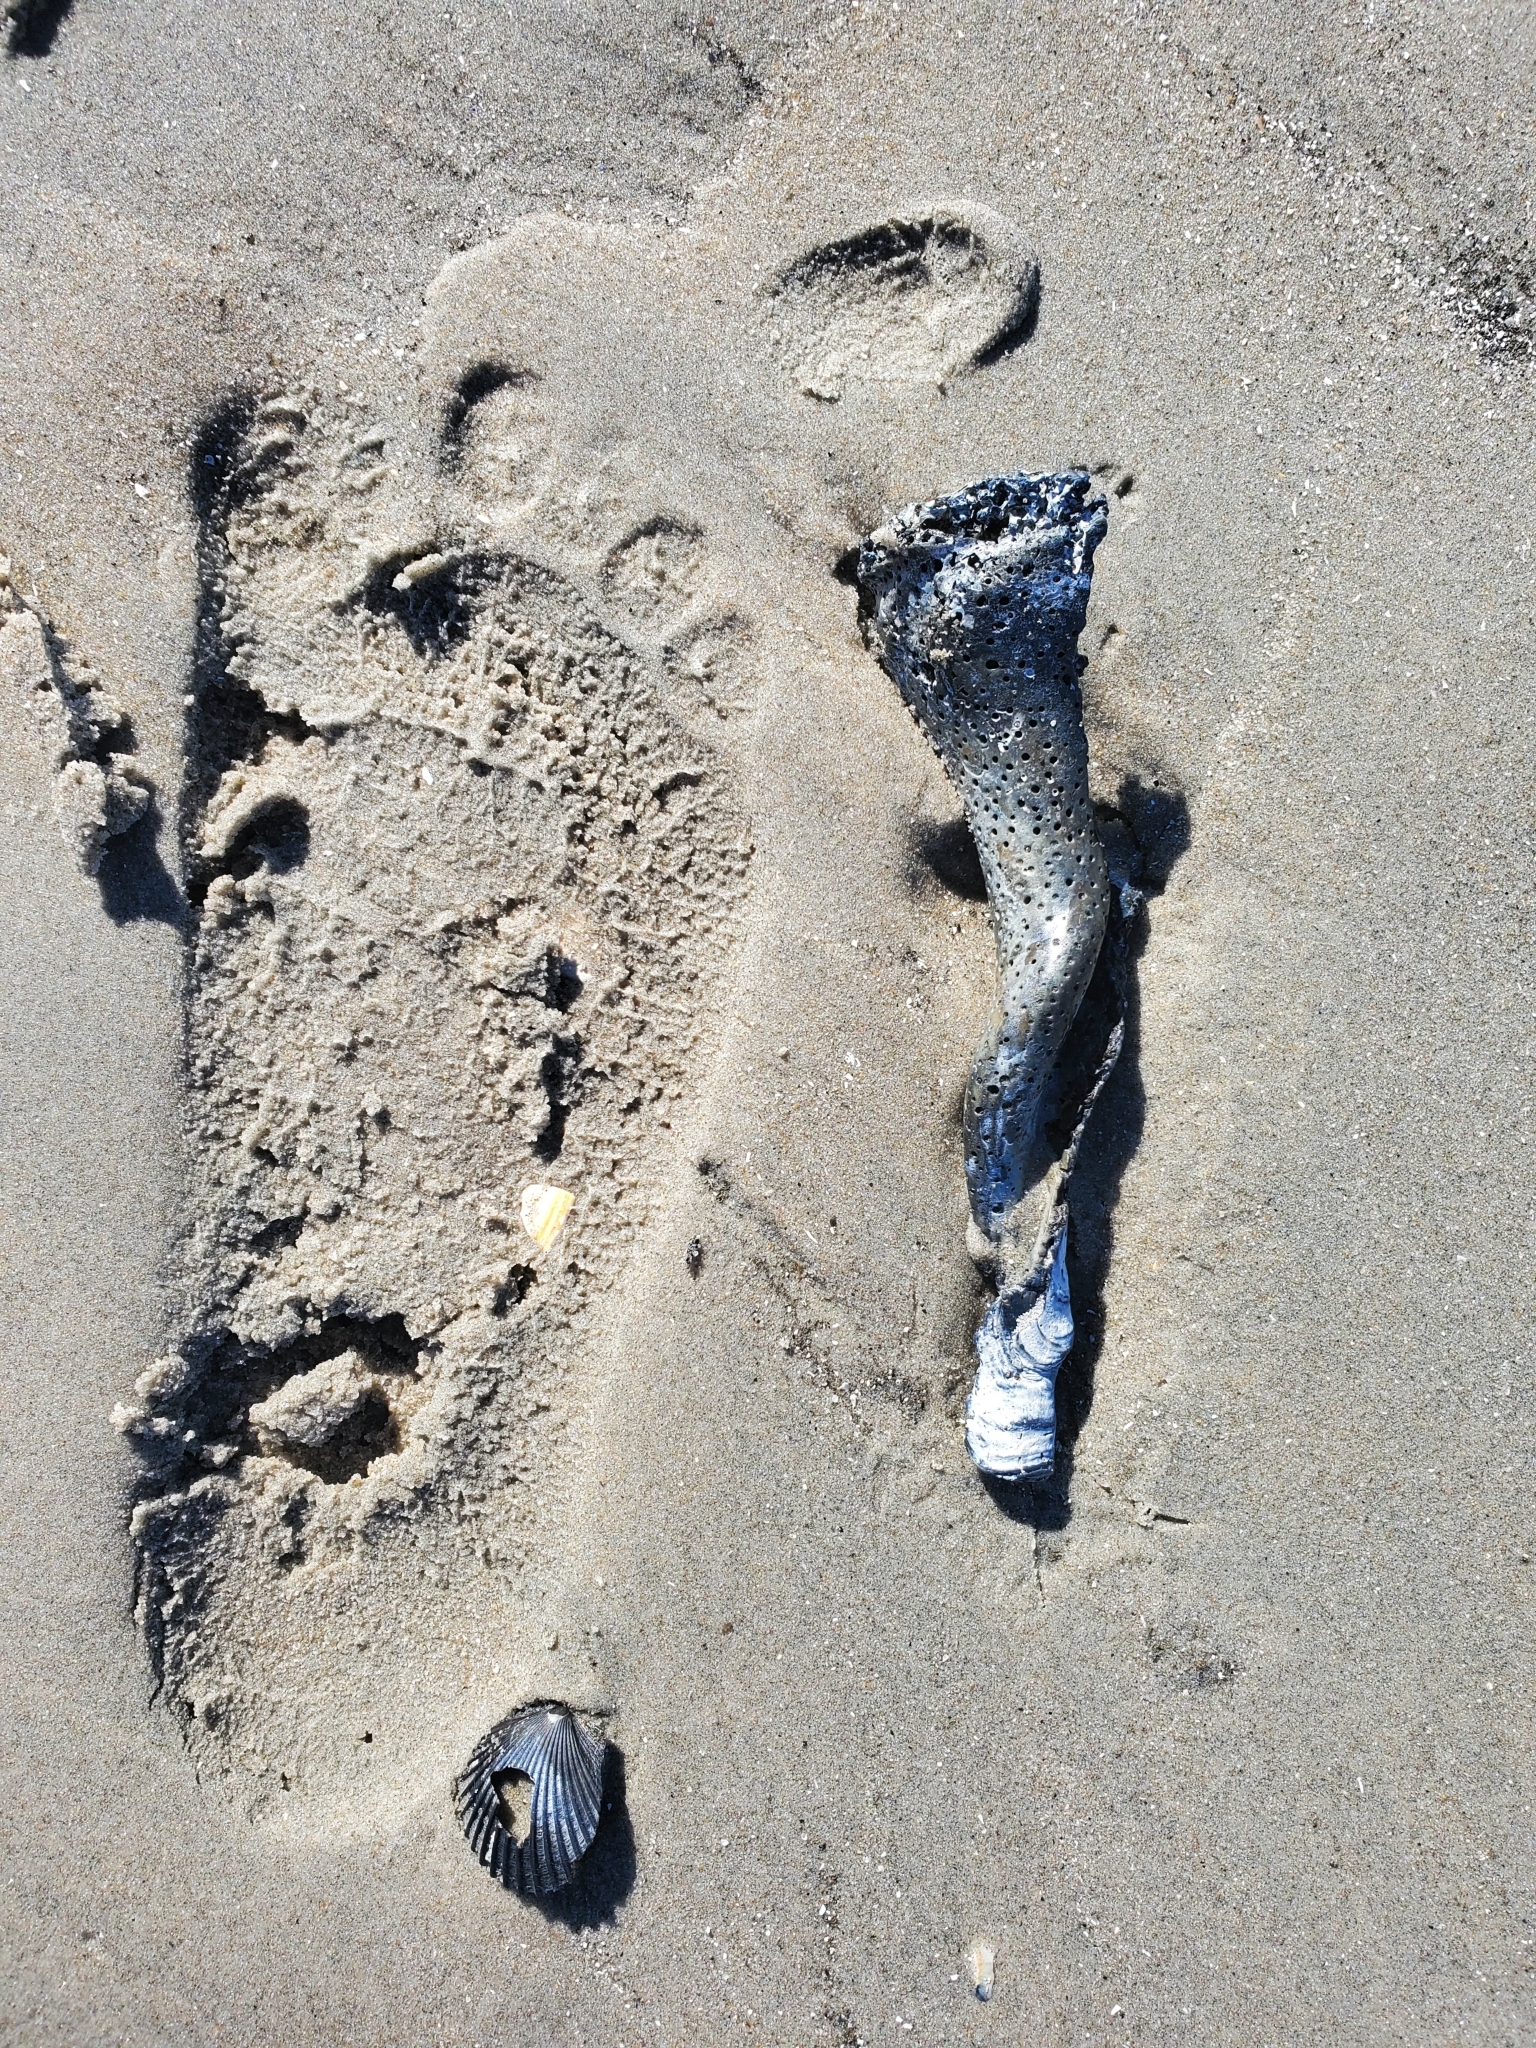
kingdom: Animalia
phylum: Mollusca
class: Gastropoda
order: Neogastropoda
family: Busyconidae
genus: Busycon
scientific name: Busycon carica
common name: Knobbed whelk
